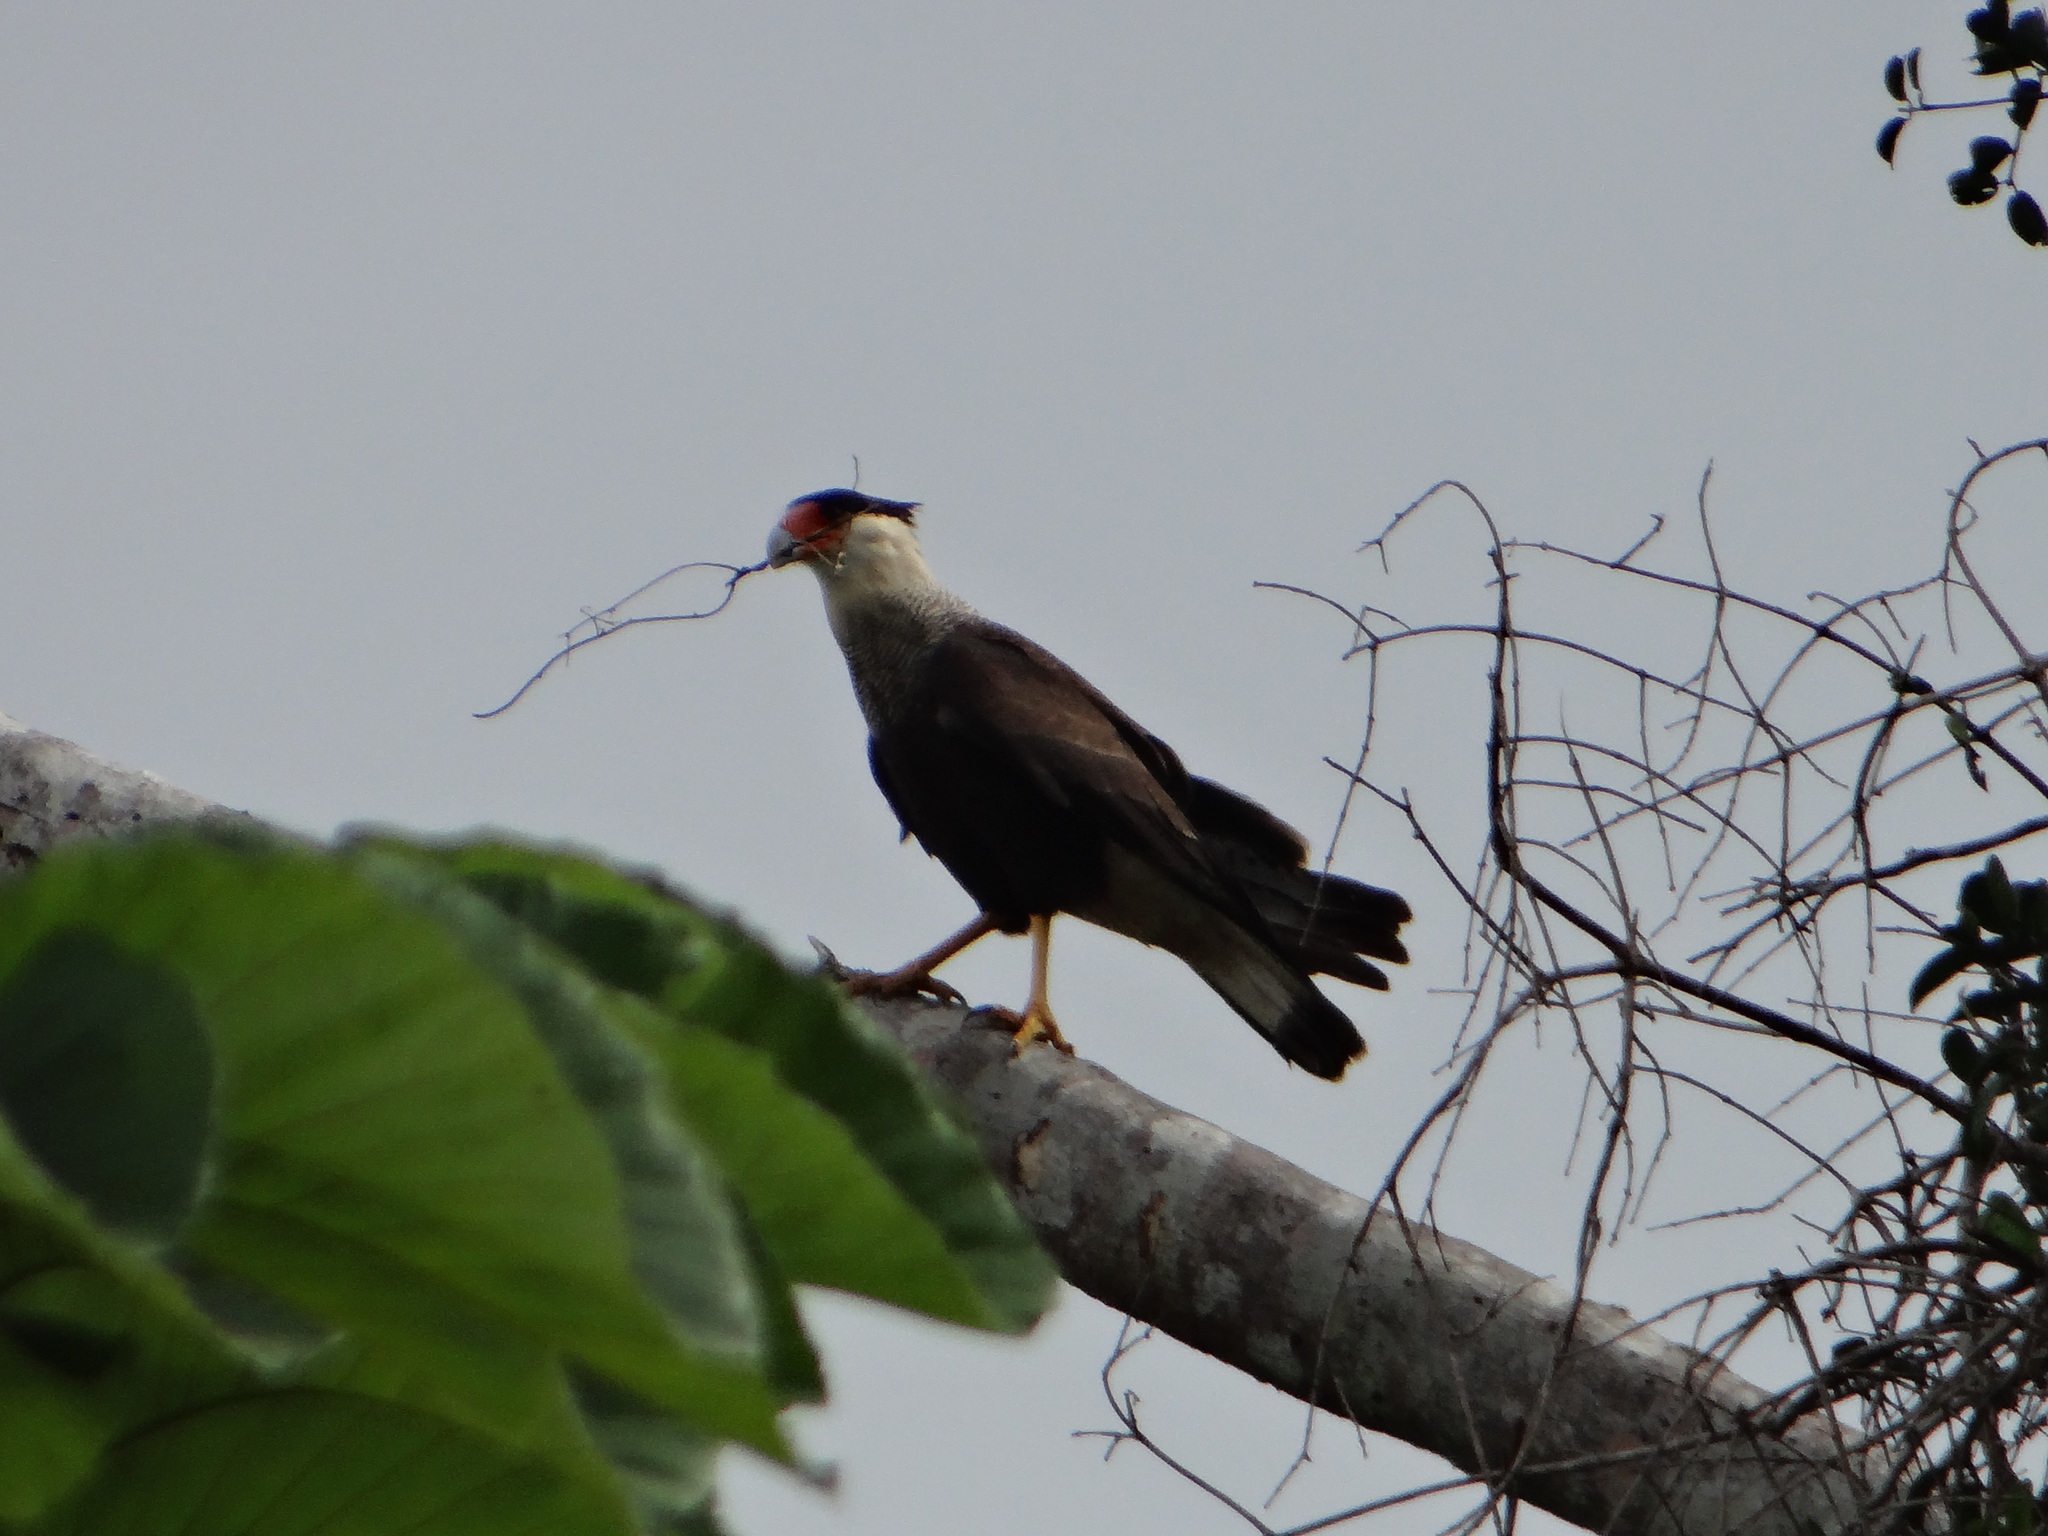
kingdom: Animalia
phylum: Chordata
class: Aves
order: Falconiformes
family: Falconidae
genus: Caracara
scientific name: Caracara plancus
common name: Southern caracara
